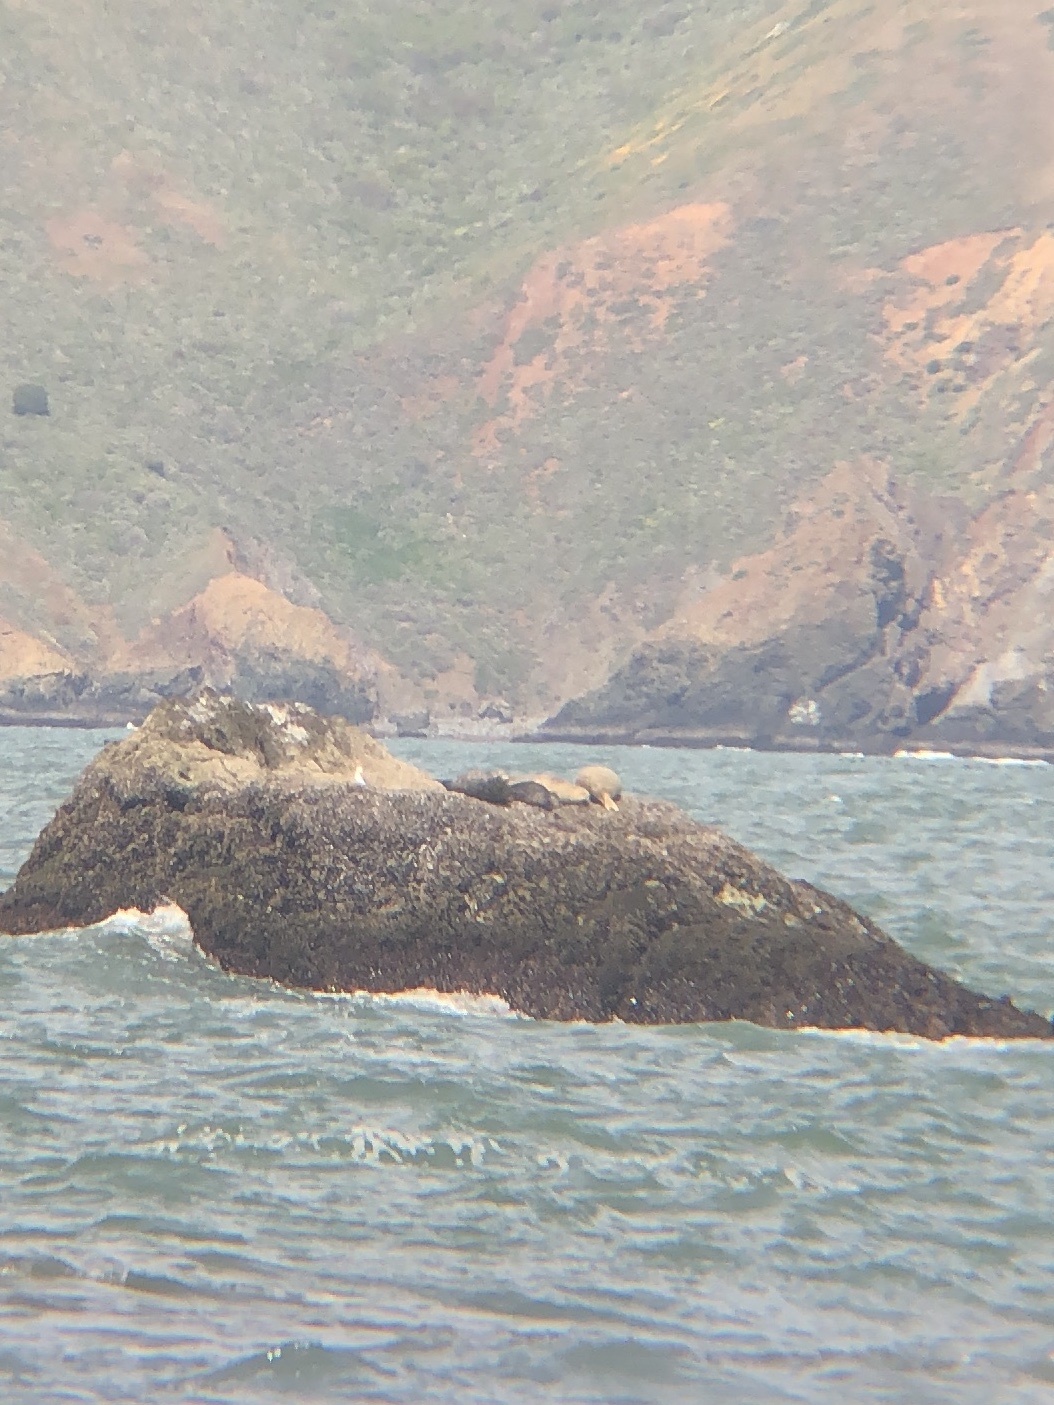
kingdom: Animalia
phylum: Chordata
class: Mammalia
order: Carnivora
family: Phocidae
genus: Phoca
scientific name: Phoca vitulina
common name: Harbor seal
